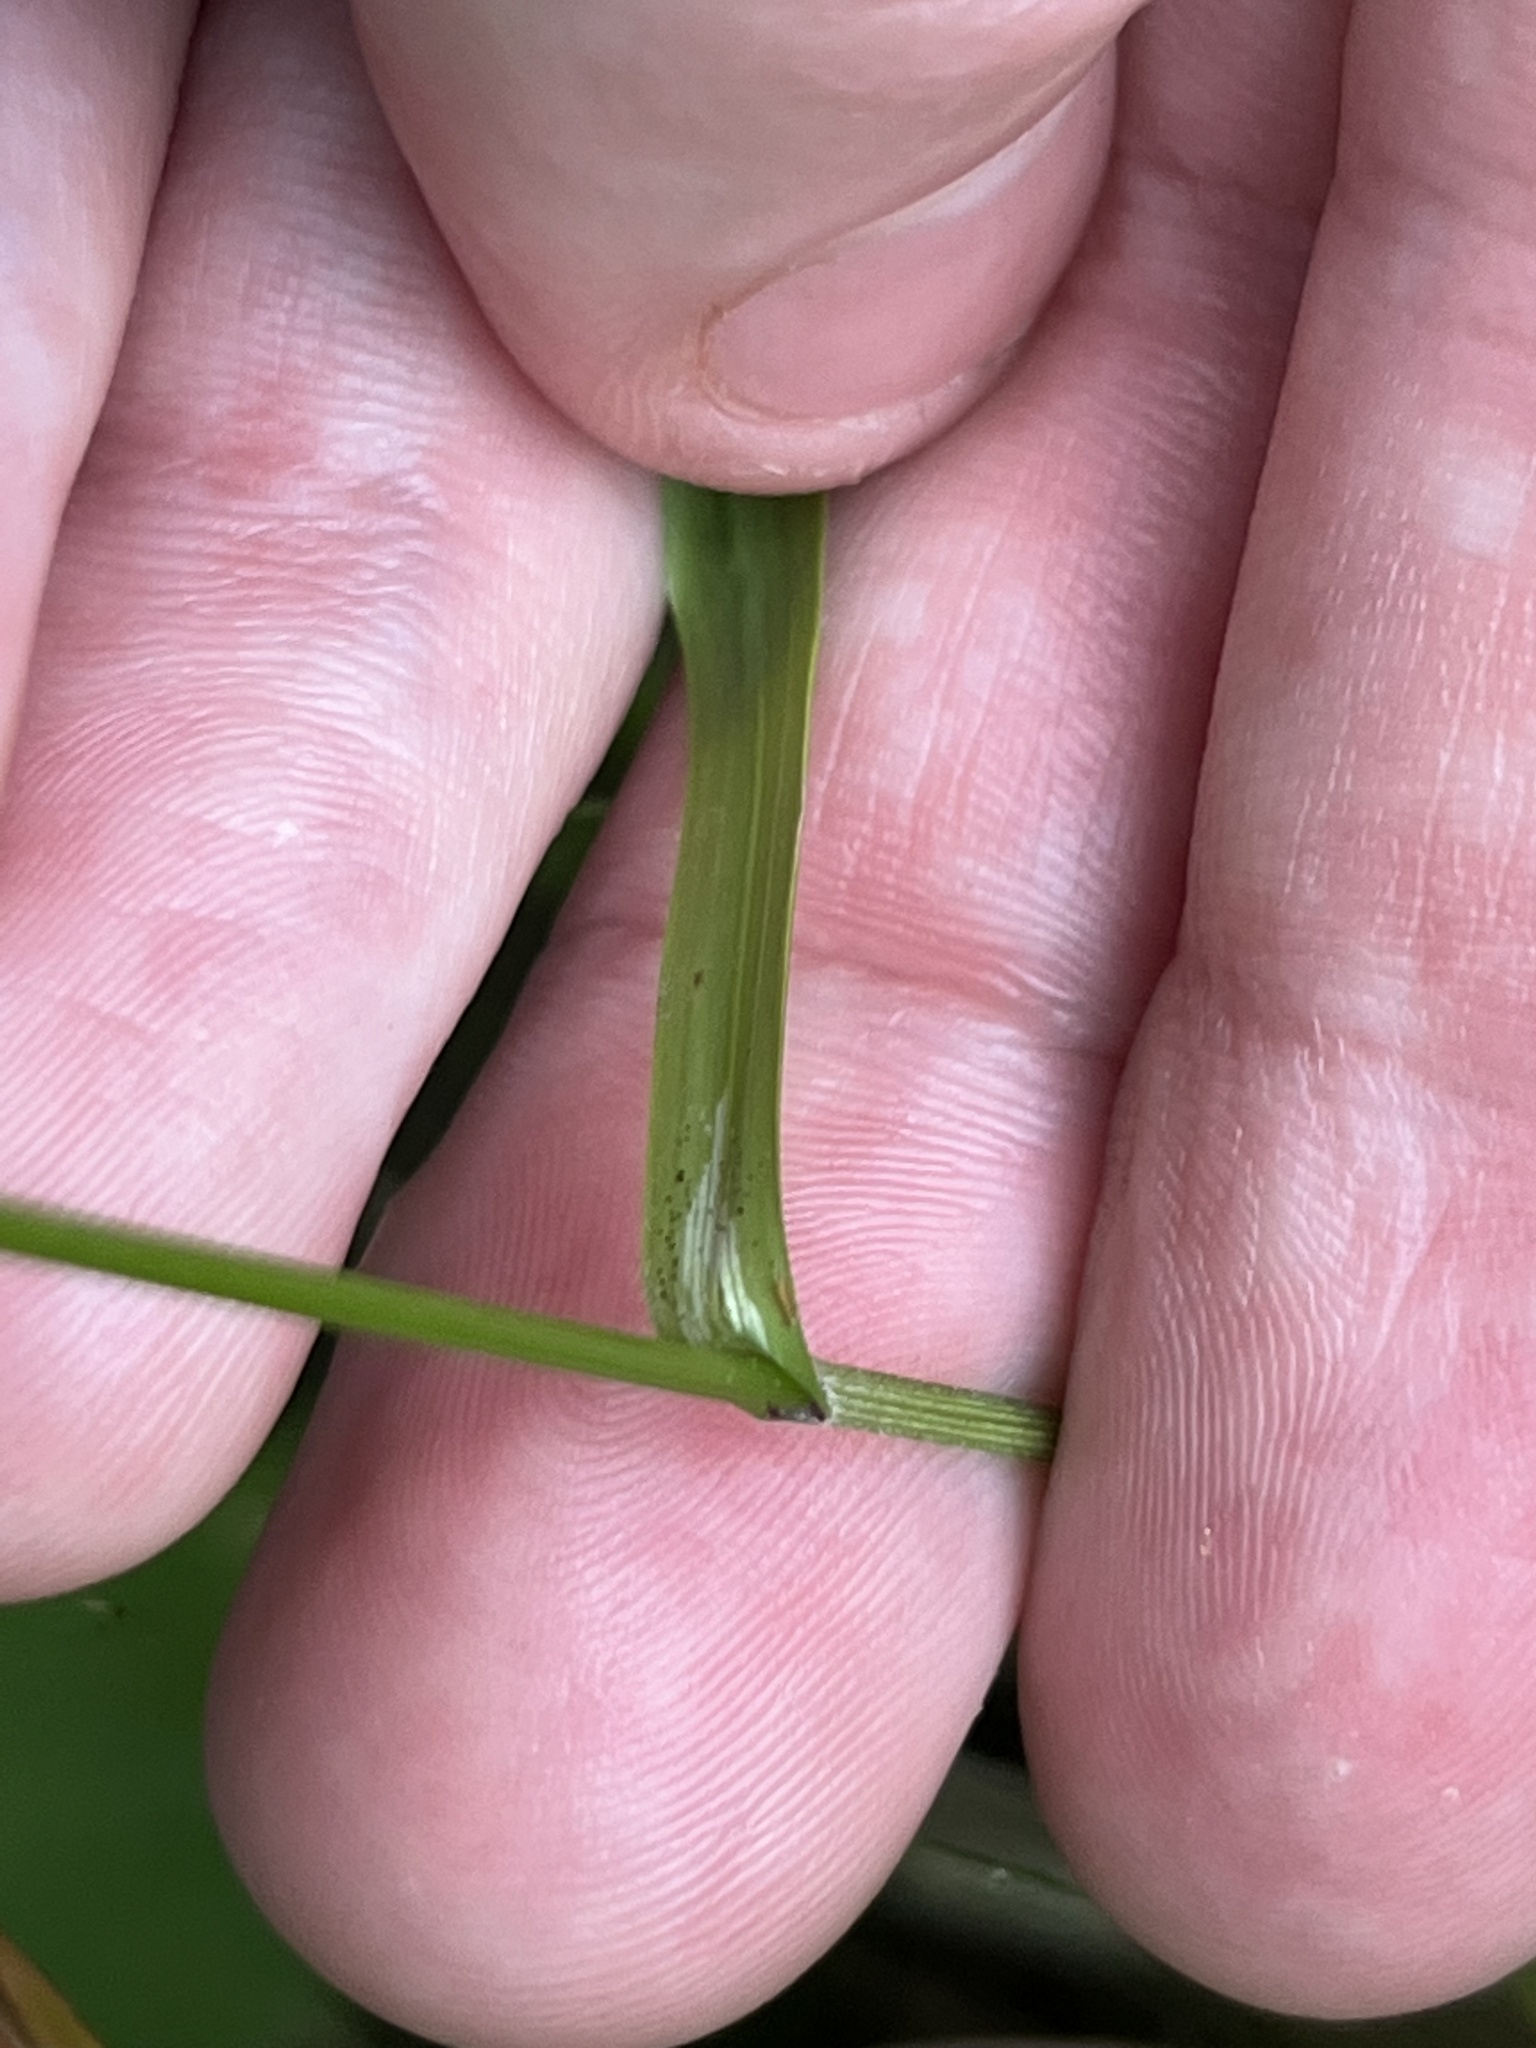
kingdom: Plantae
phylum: Tracheophyta
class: Liliopsida
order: Poales
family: Poaceae
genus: Melica
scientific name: Melica uniflora
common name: Wood melick
